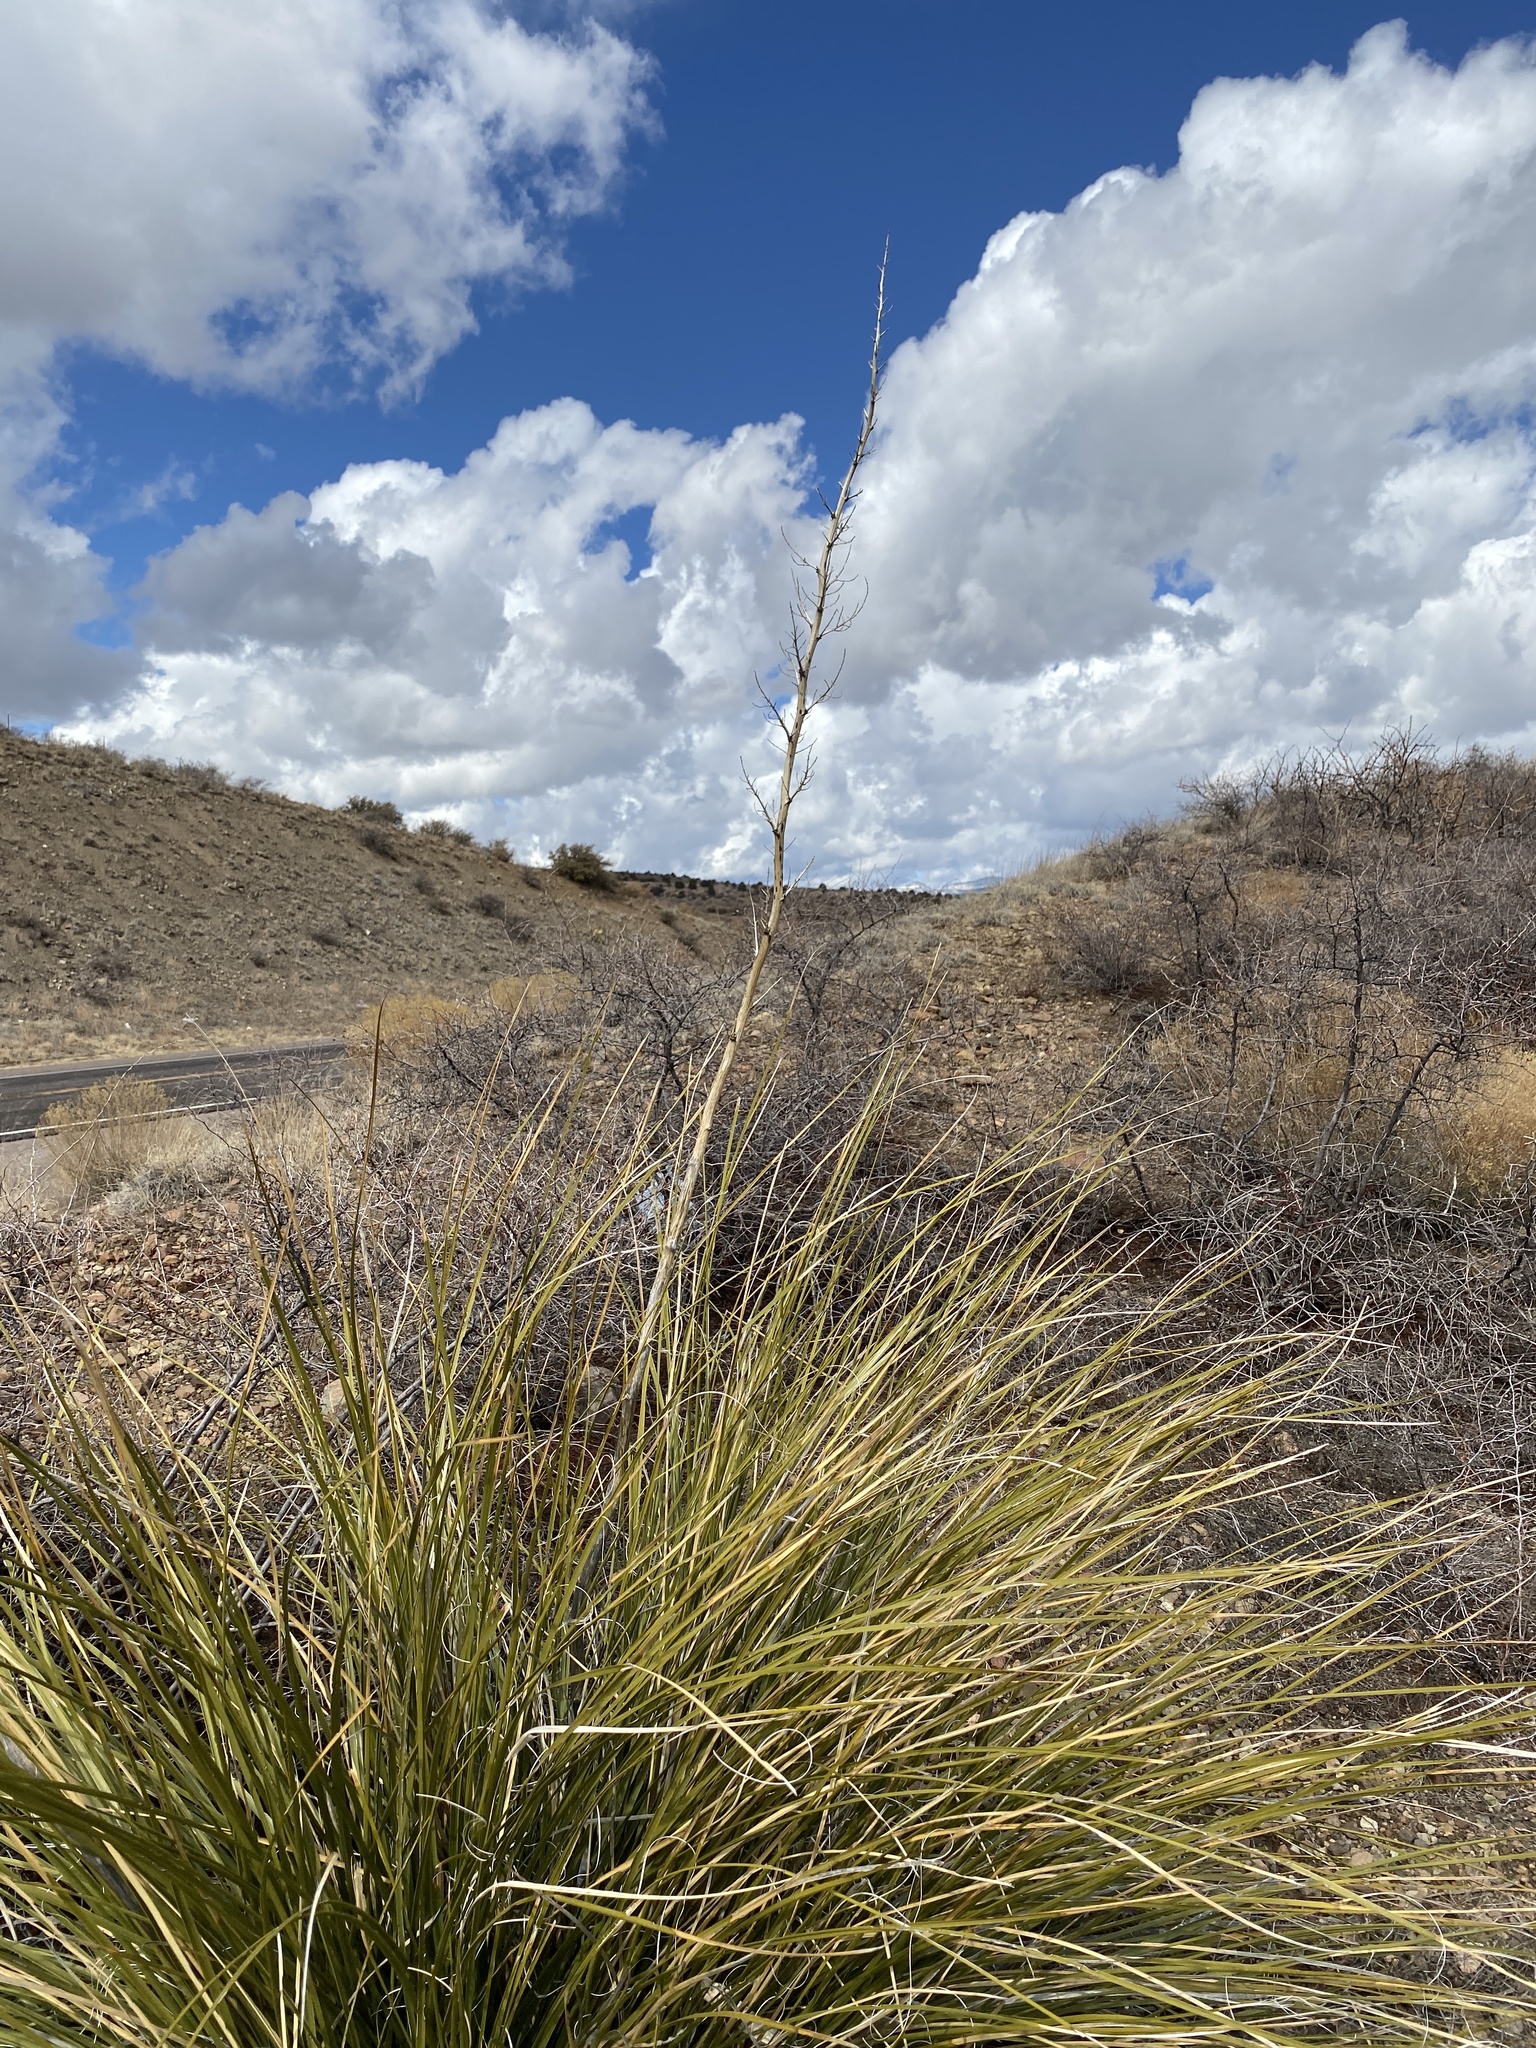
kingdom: Plantae
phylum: Tracheophyta
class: Liliopsida
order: Asparagales
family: Asparagaceae
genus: Nolina
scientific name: Nolina microcarpa
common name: Bear-grass
